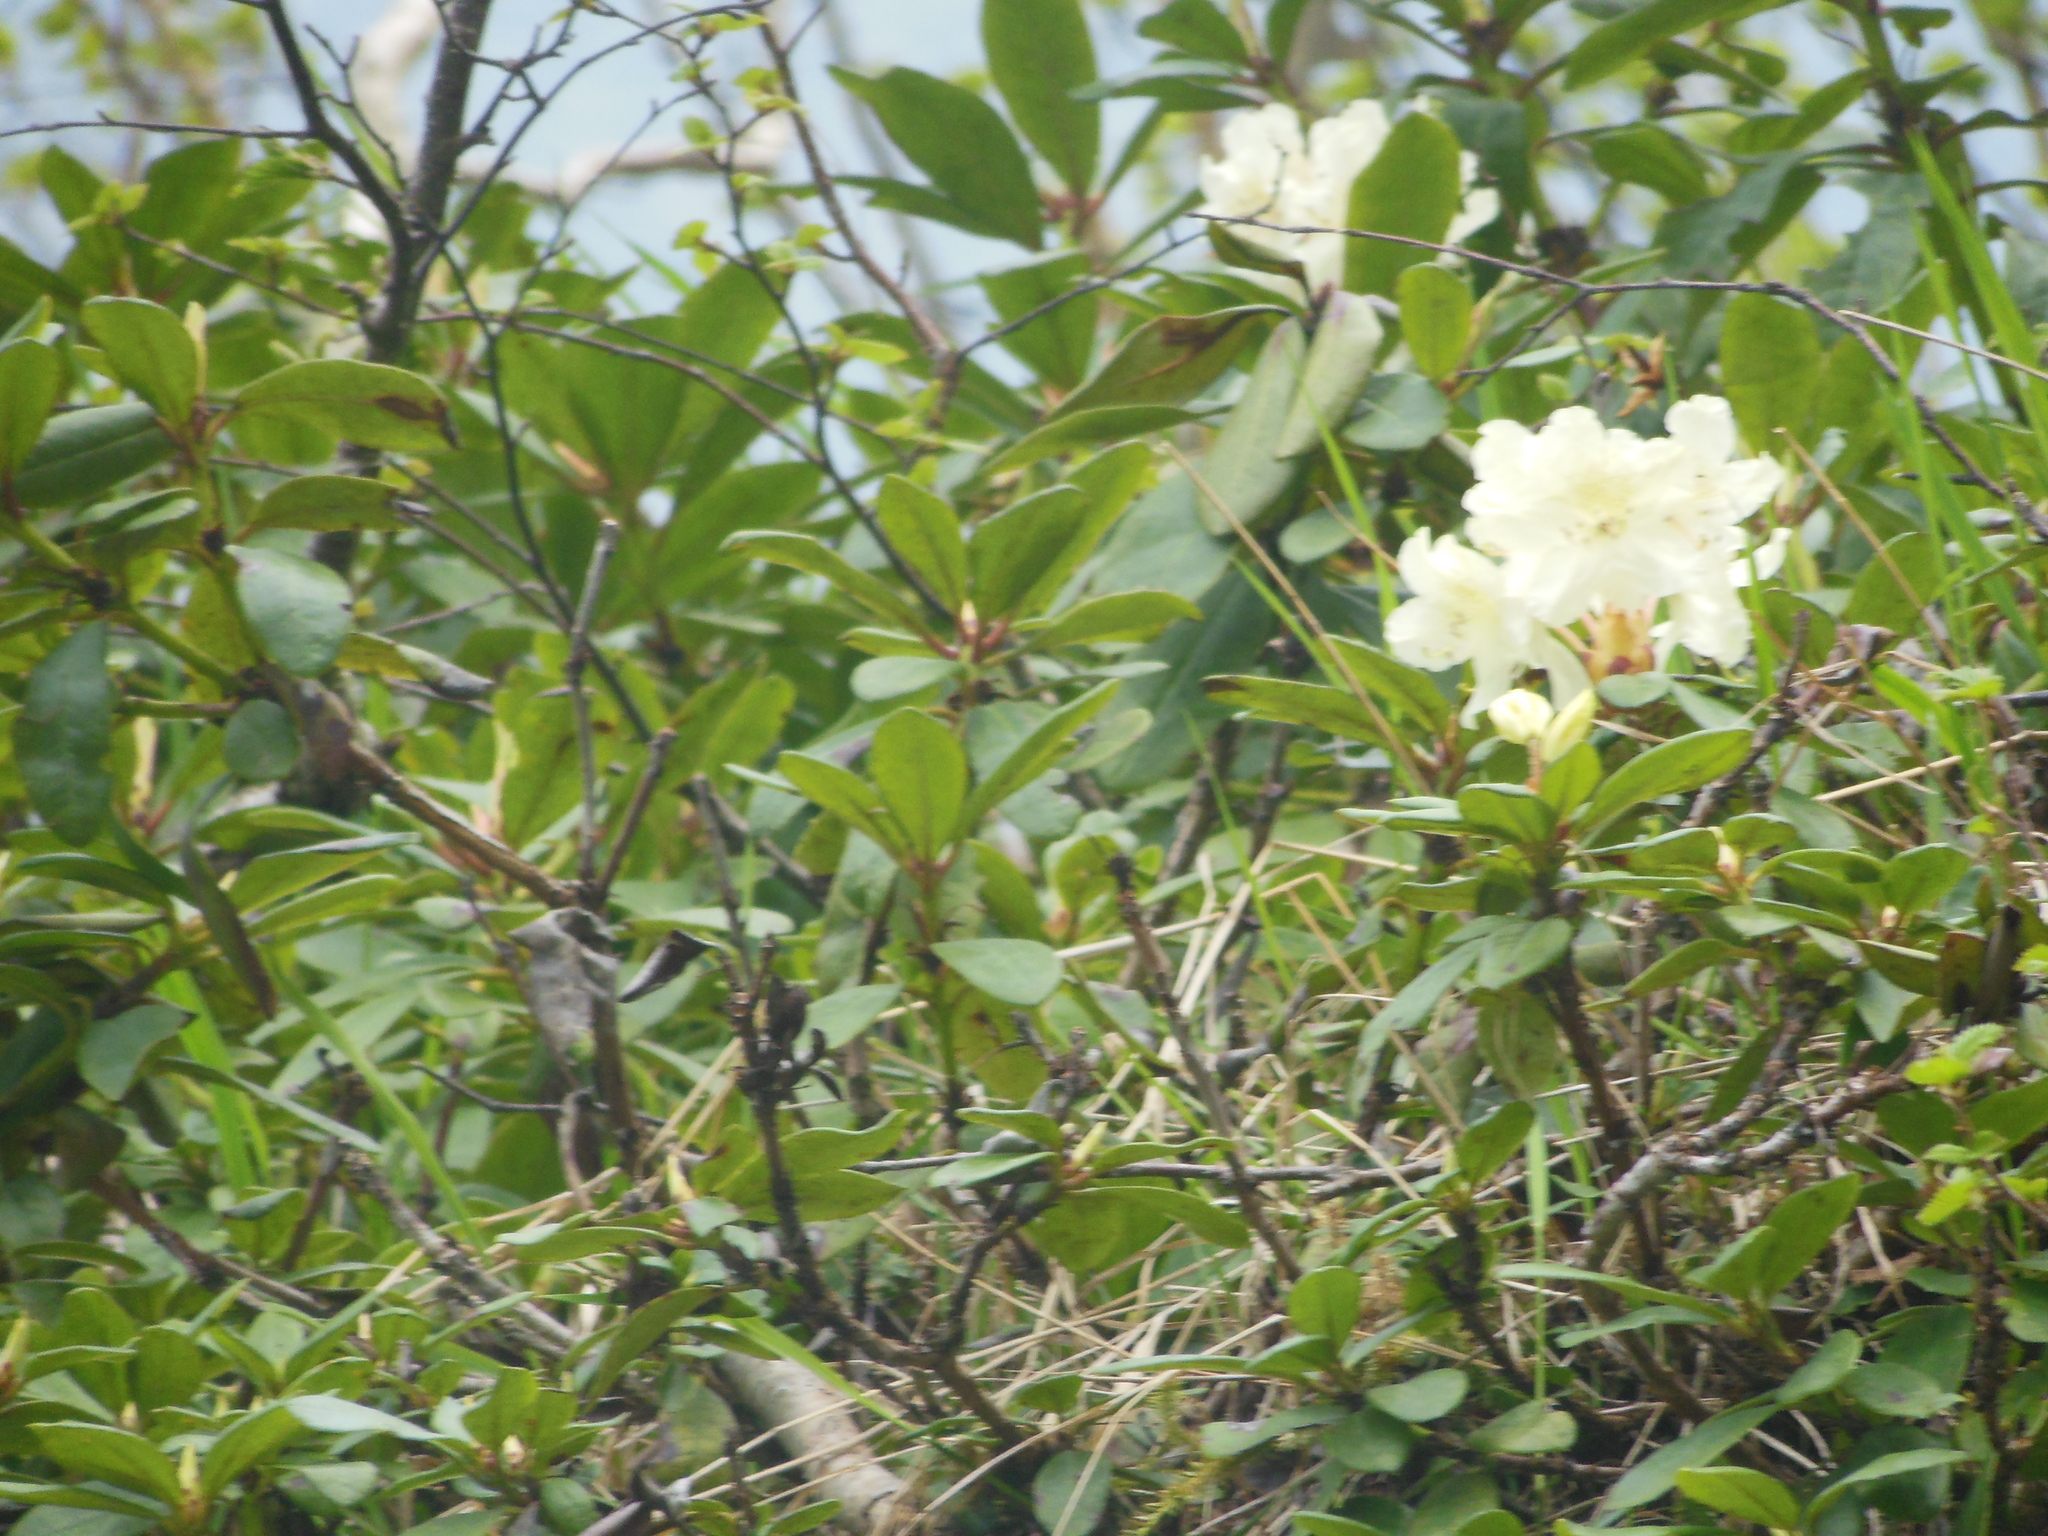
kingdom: Plantae
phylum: Tracheophyta
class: Magnoliopsida
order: Ericales
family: Ericaceae
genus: Rhododendron
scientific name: Rhododendron aureum
